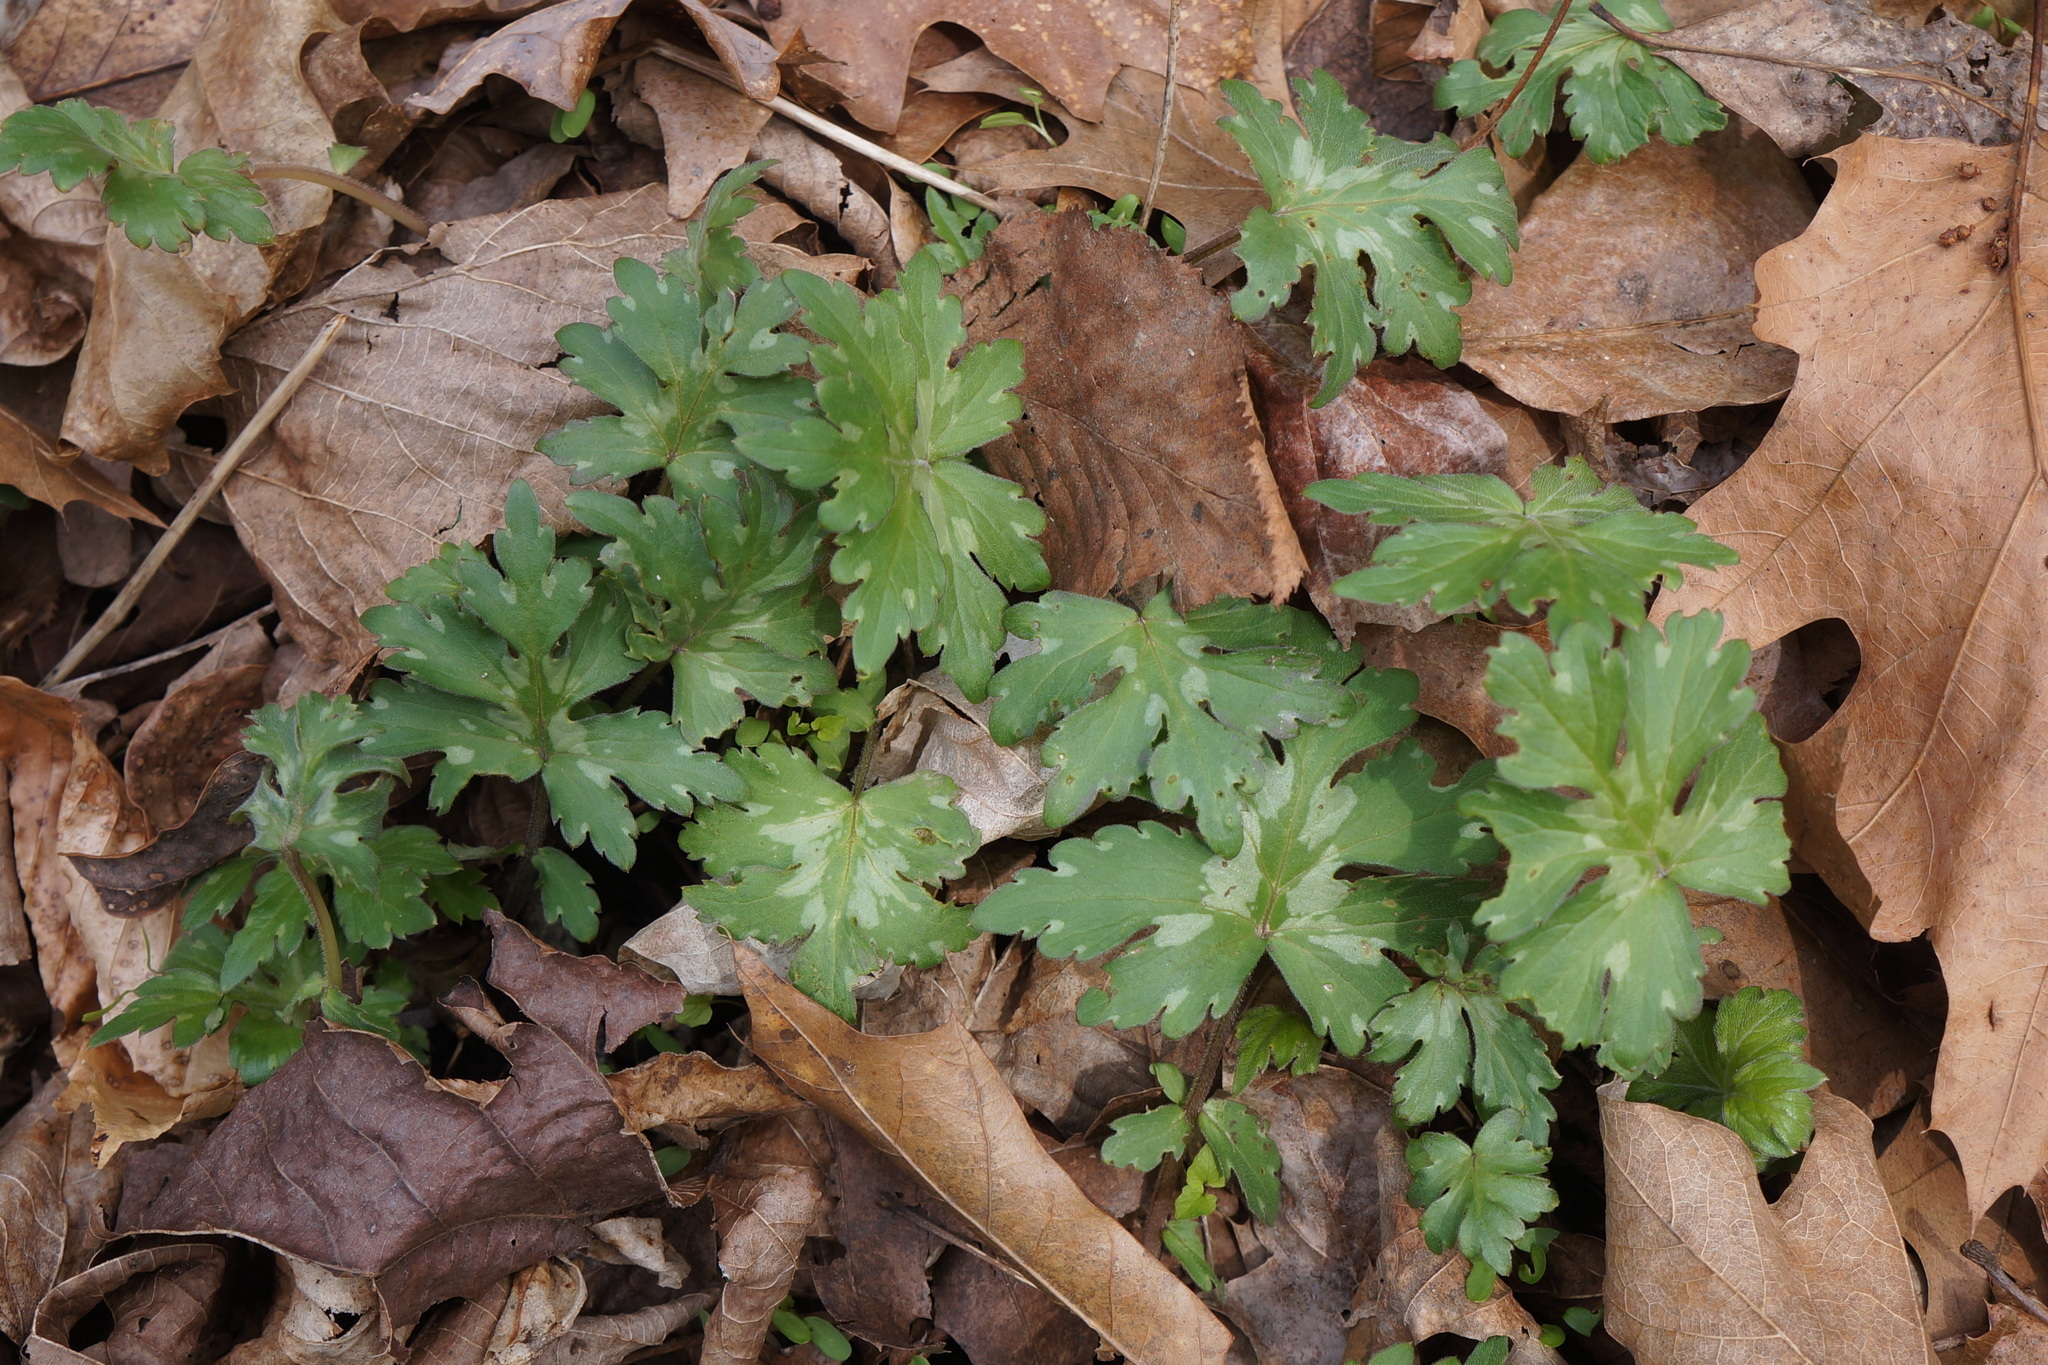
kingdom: Plantae
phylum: Tracheophyta
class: Magnoliopsida
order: Boraginales
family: Hydrophyllaceae
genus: Hydrophyllum
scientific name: Hydrophyllum canadense
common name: Canada waterleaf
